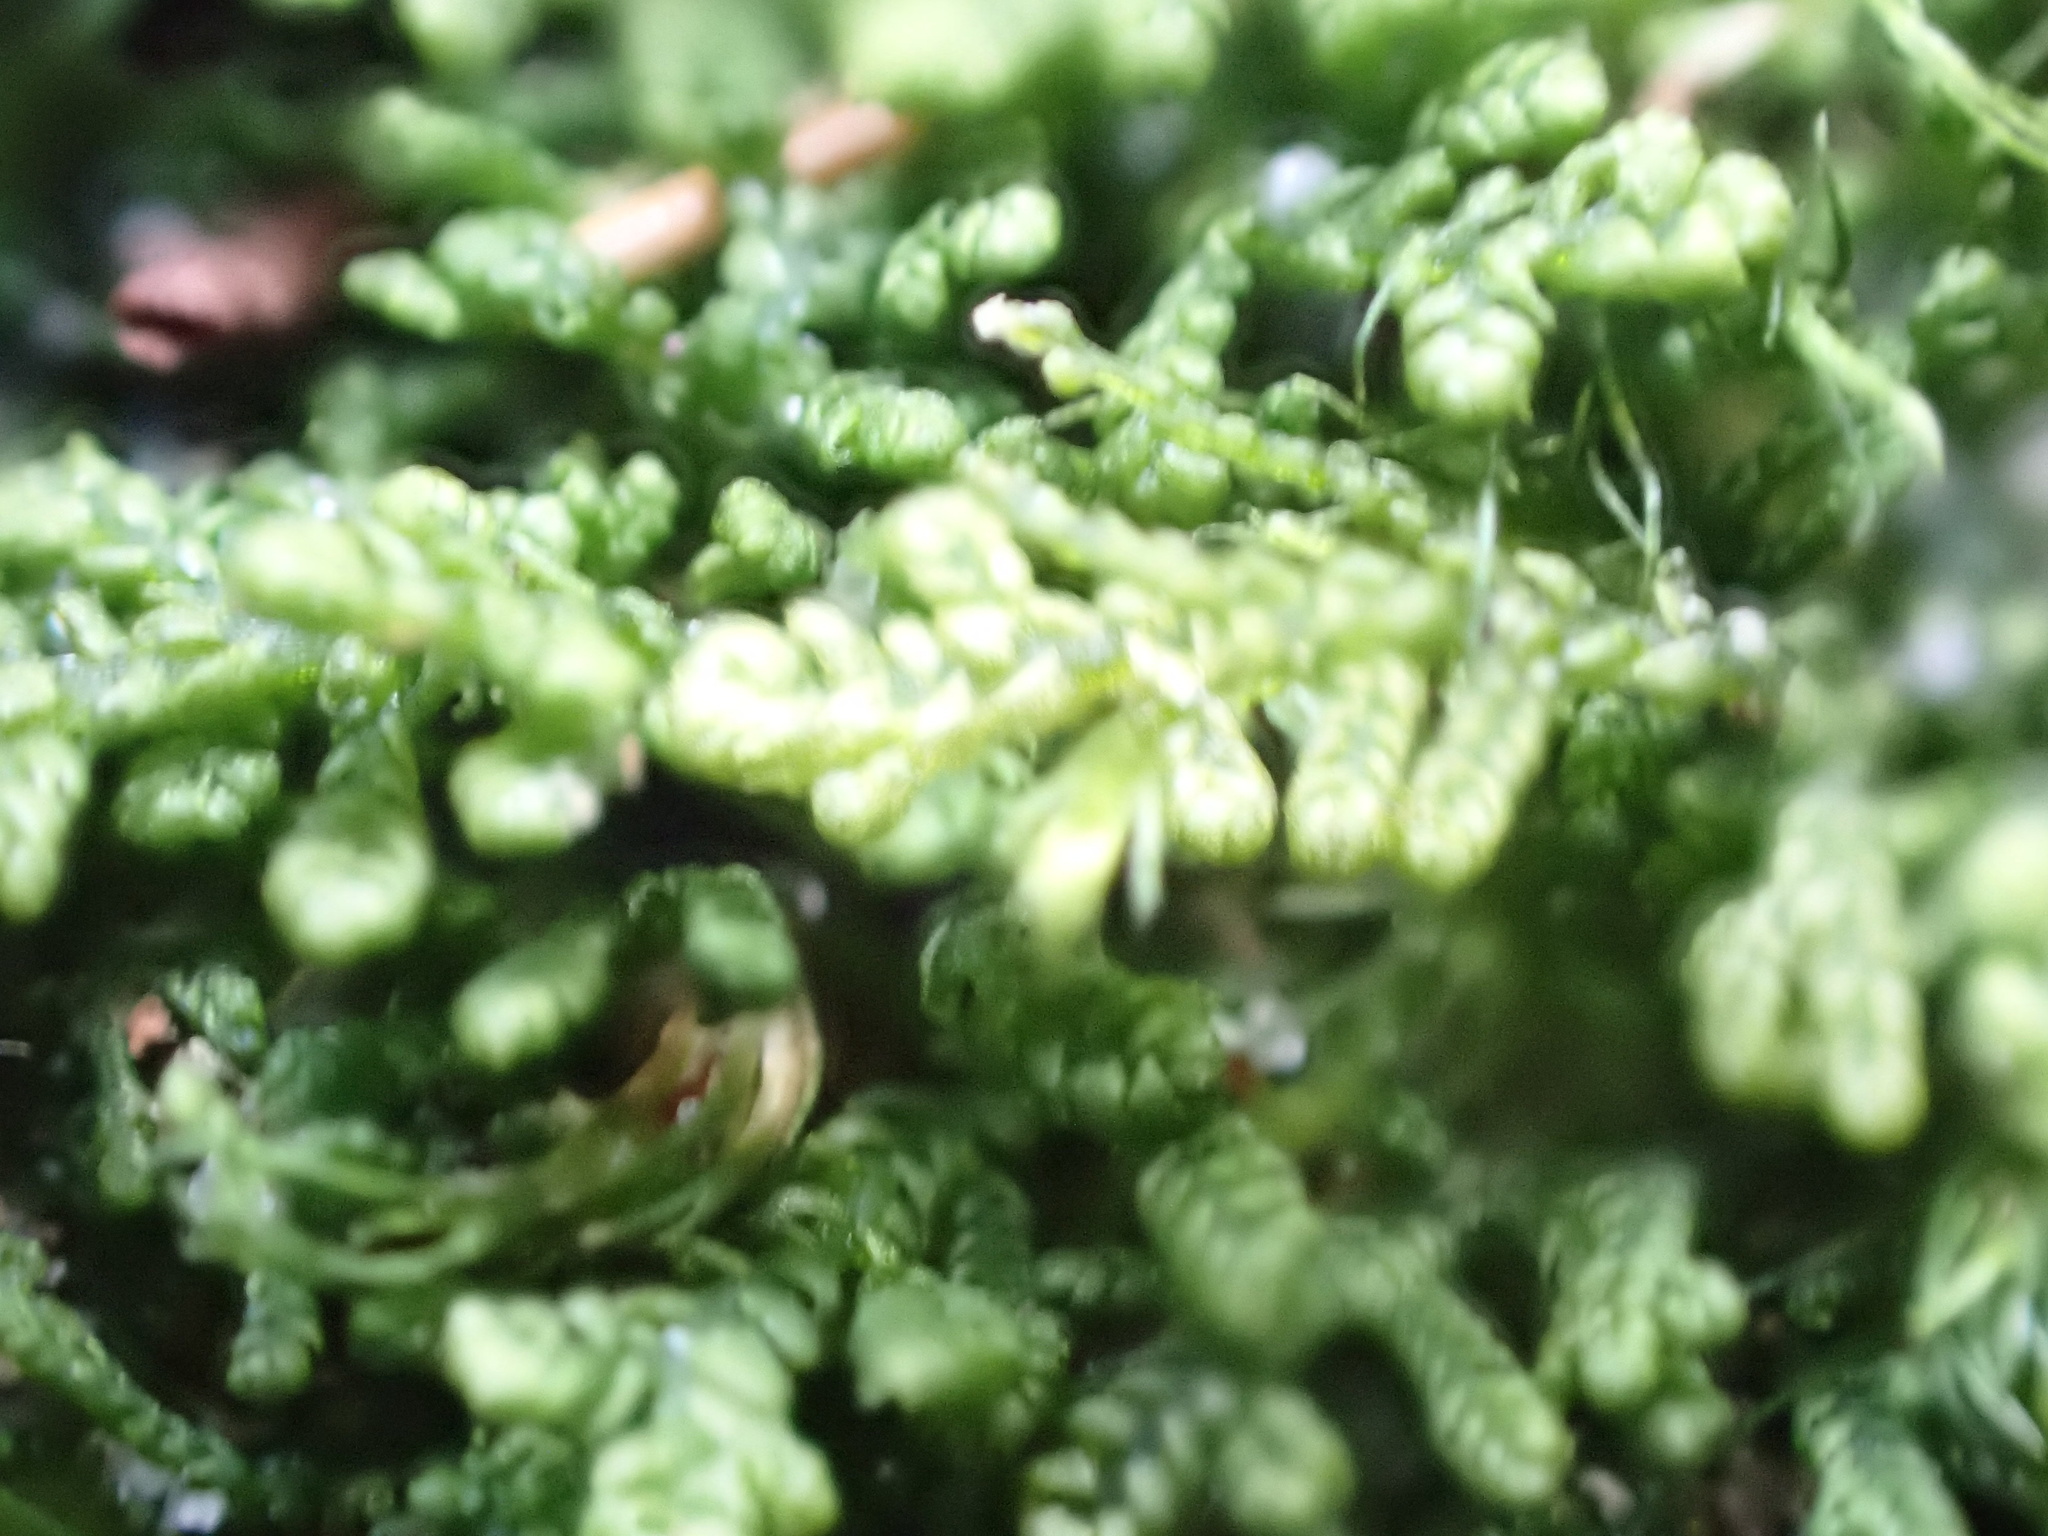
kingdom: Plantae
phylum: Marchantiophyta
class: Jungermanniopsida
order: Jungermanniales
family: Lepidoziaceae
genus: Lepidozia
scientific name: Lepidozia reptans
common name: Creeping fingerwort
